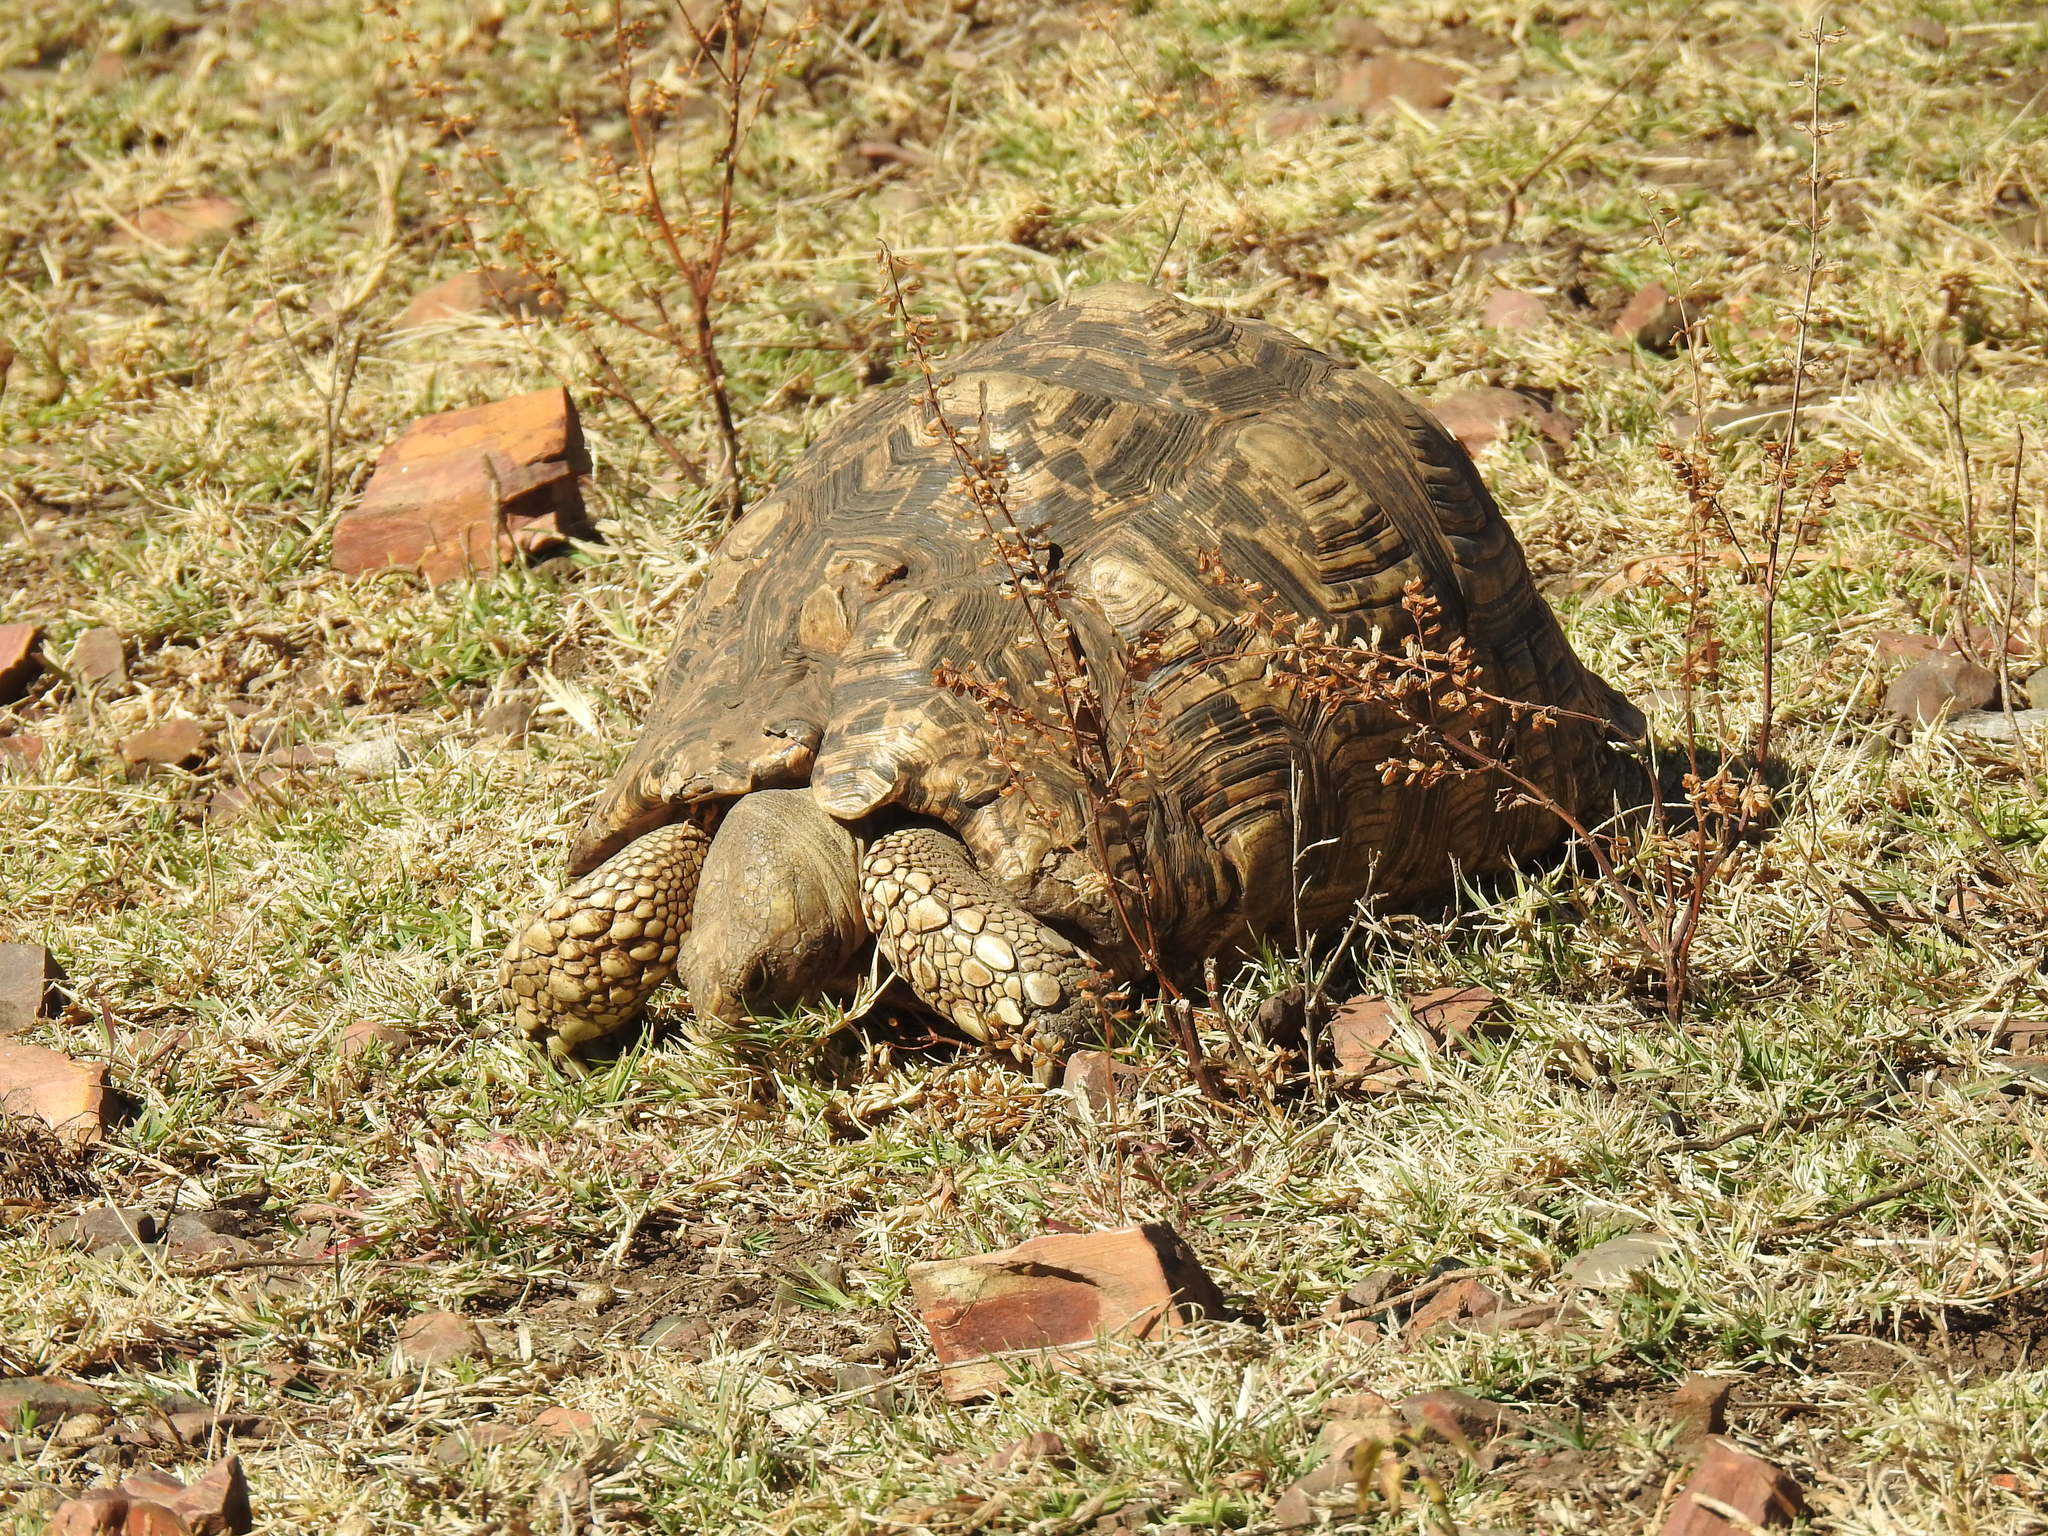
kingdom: Animalia
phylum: Chordata
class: Testudines
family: Testudinidae
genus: Stigmochelys
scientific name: Stigmochelys pardalis
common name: Leopard tortoise
